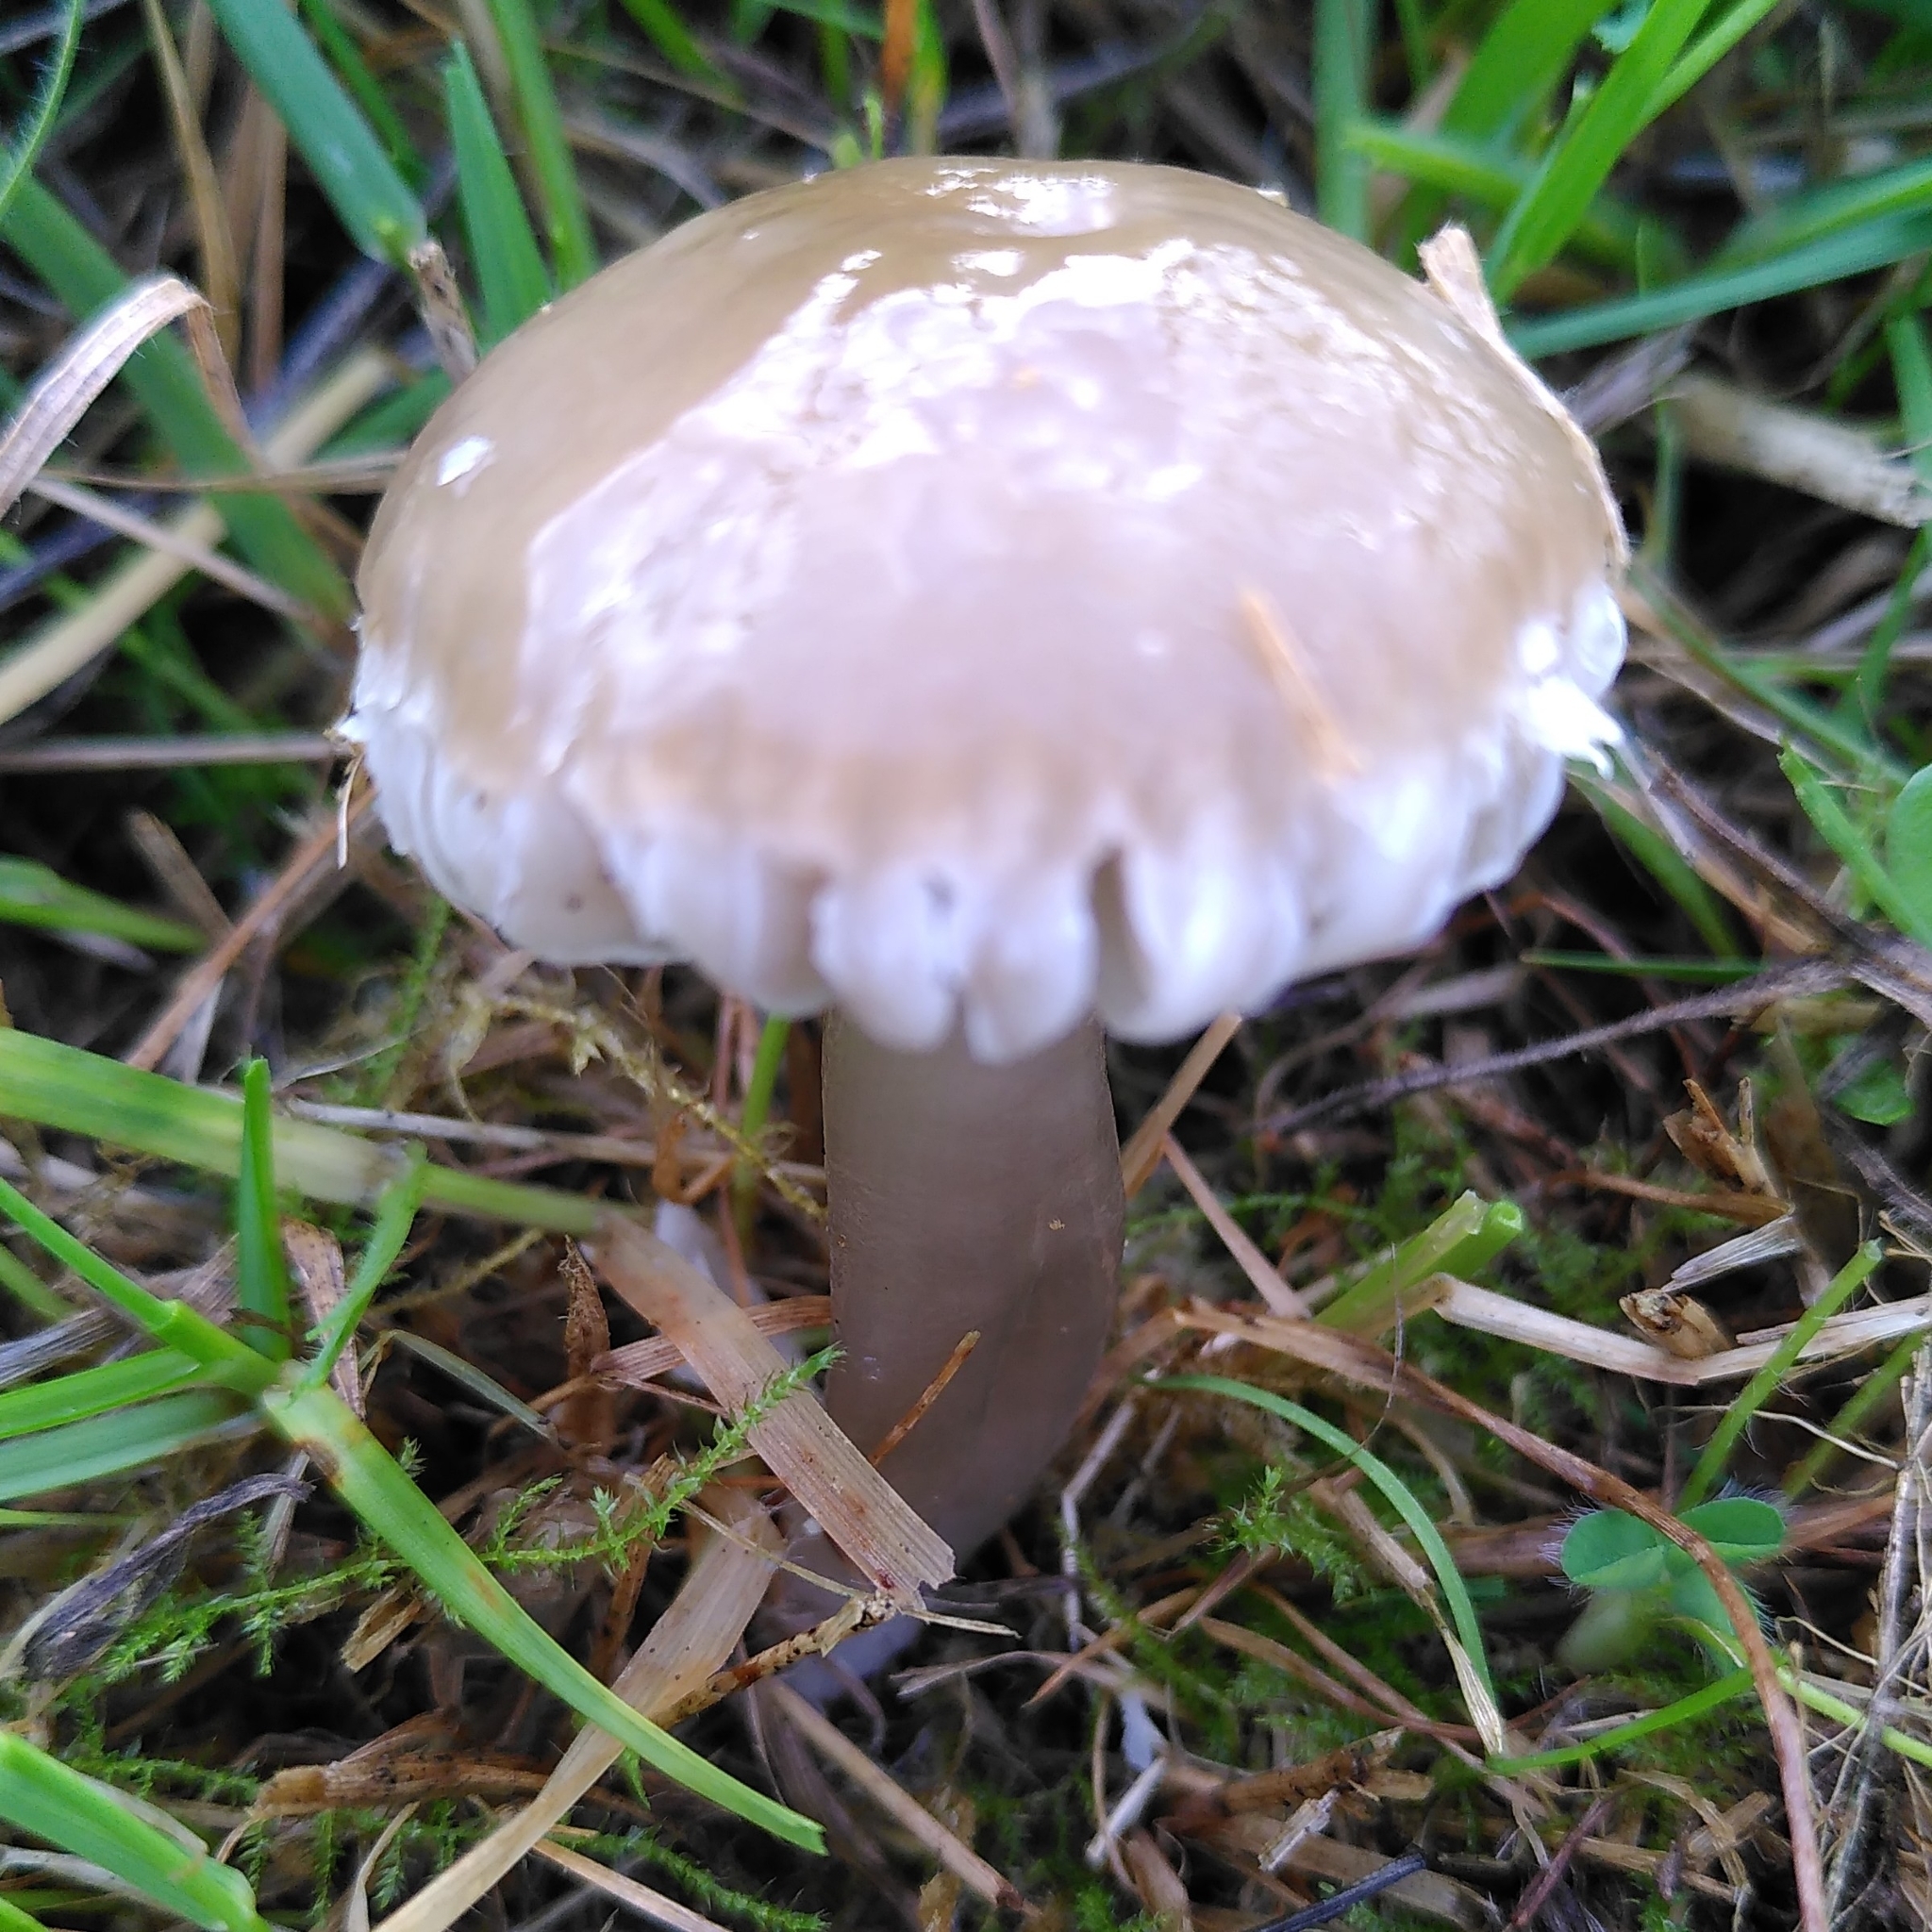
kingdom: Fungi
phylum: Basidiomycota
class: Agaricomycetes
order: Agaricales
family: Hygrophoraceae
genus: Gliophorus
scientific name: Gliophorus irrigatus
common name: Slimy waxcap
